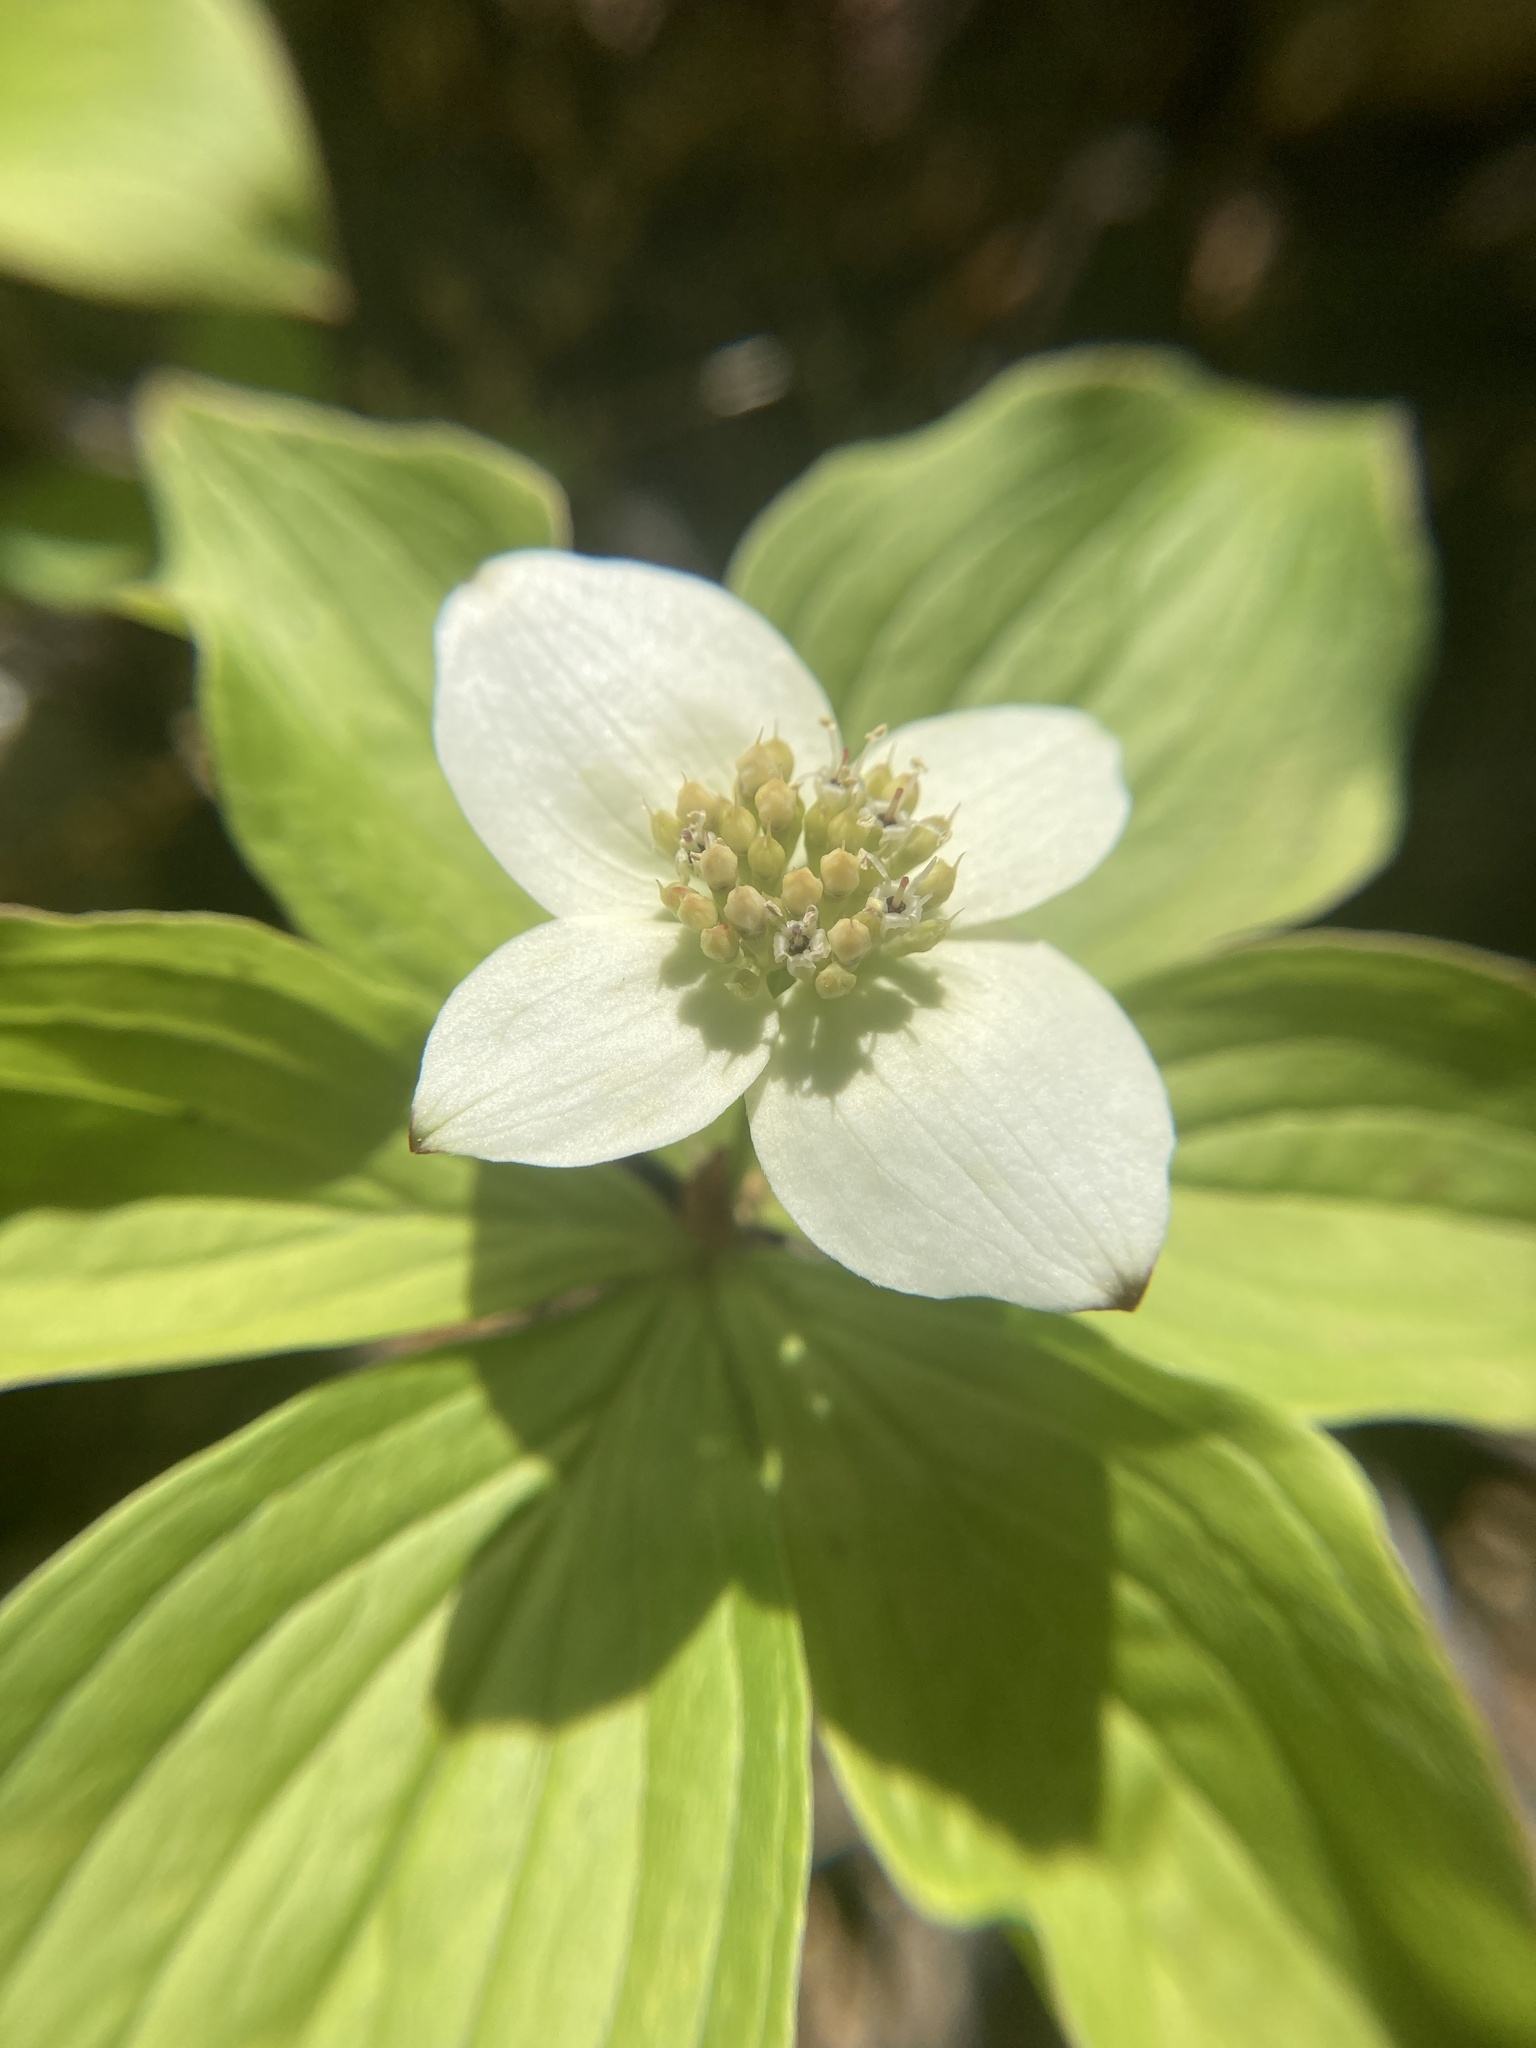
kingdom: Plantae
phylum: Tracheophyta
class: Magnoliopsida
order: Cornales
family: Cornaceae
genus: Cornus
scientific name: Cornus canadensis
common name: Creeping dogwood
